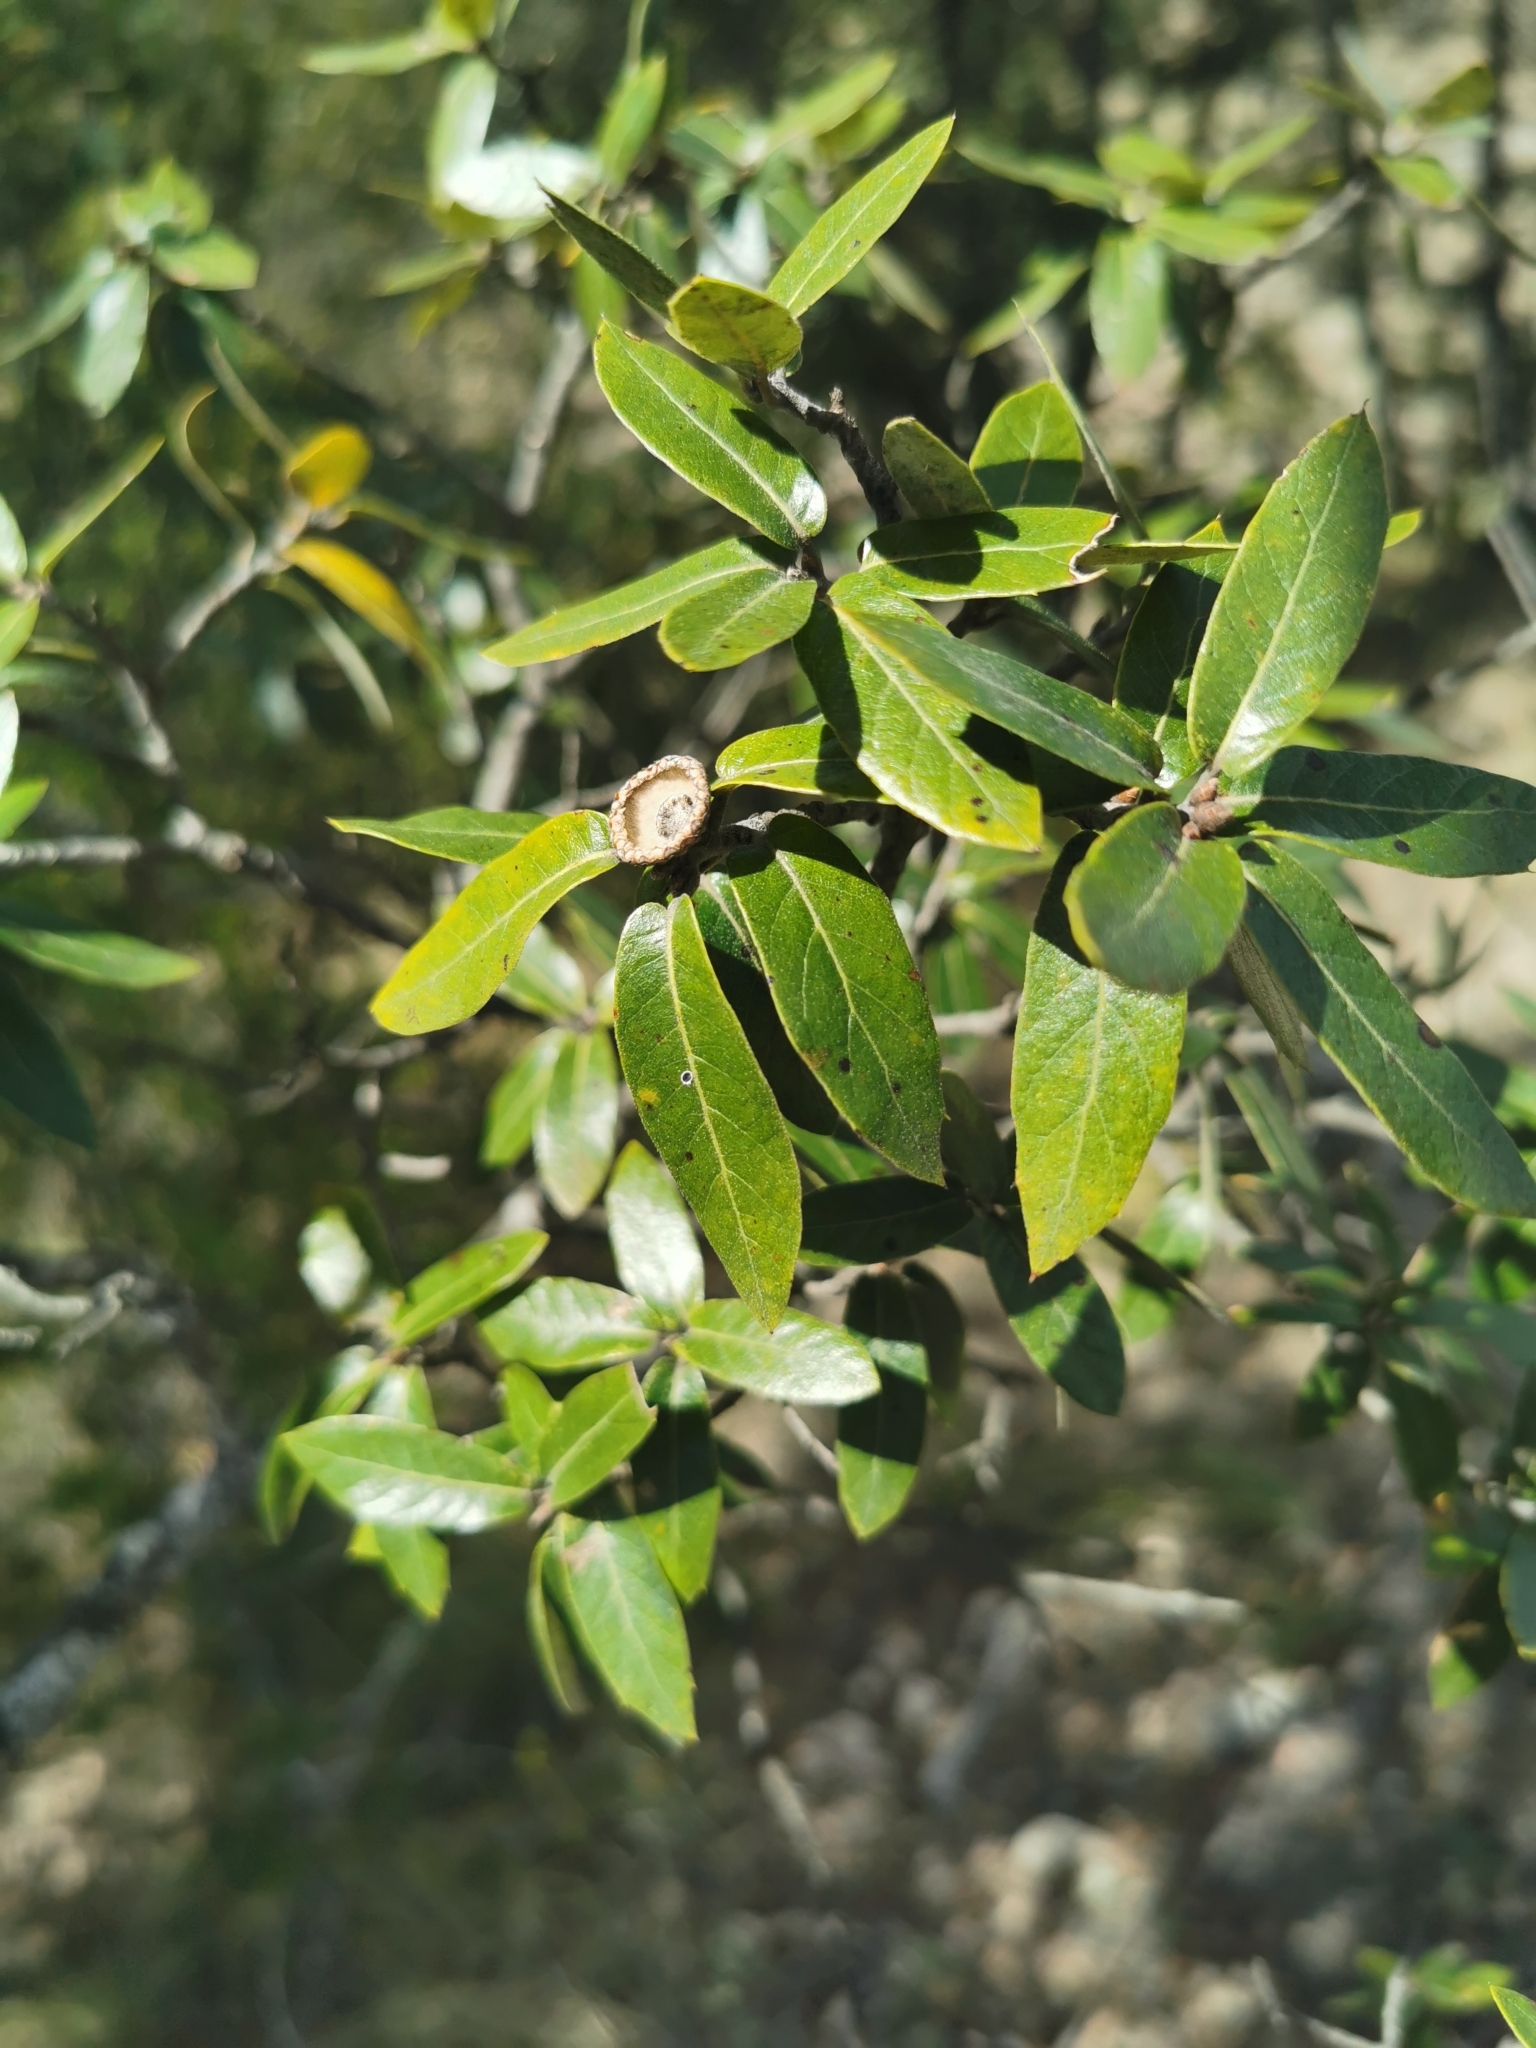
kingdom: Plantae
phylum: Tracheophyta
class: Magnoliopsida
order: Fagales
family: Fagaceae
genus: Quercus
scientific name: Quercus durifolia
